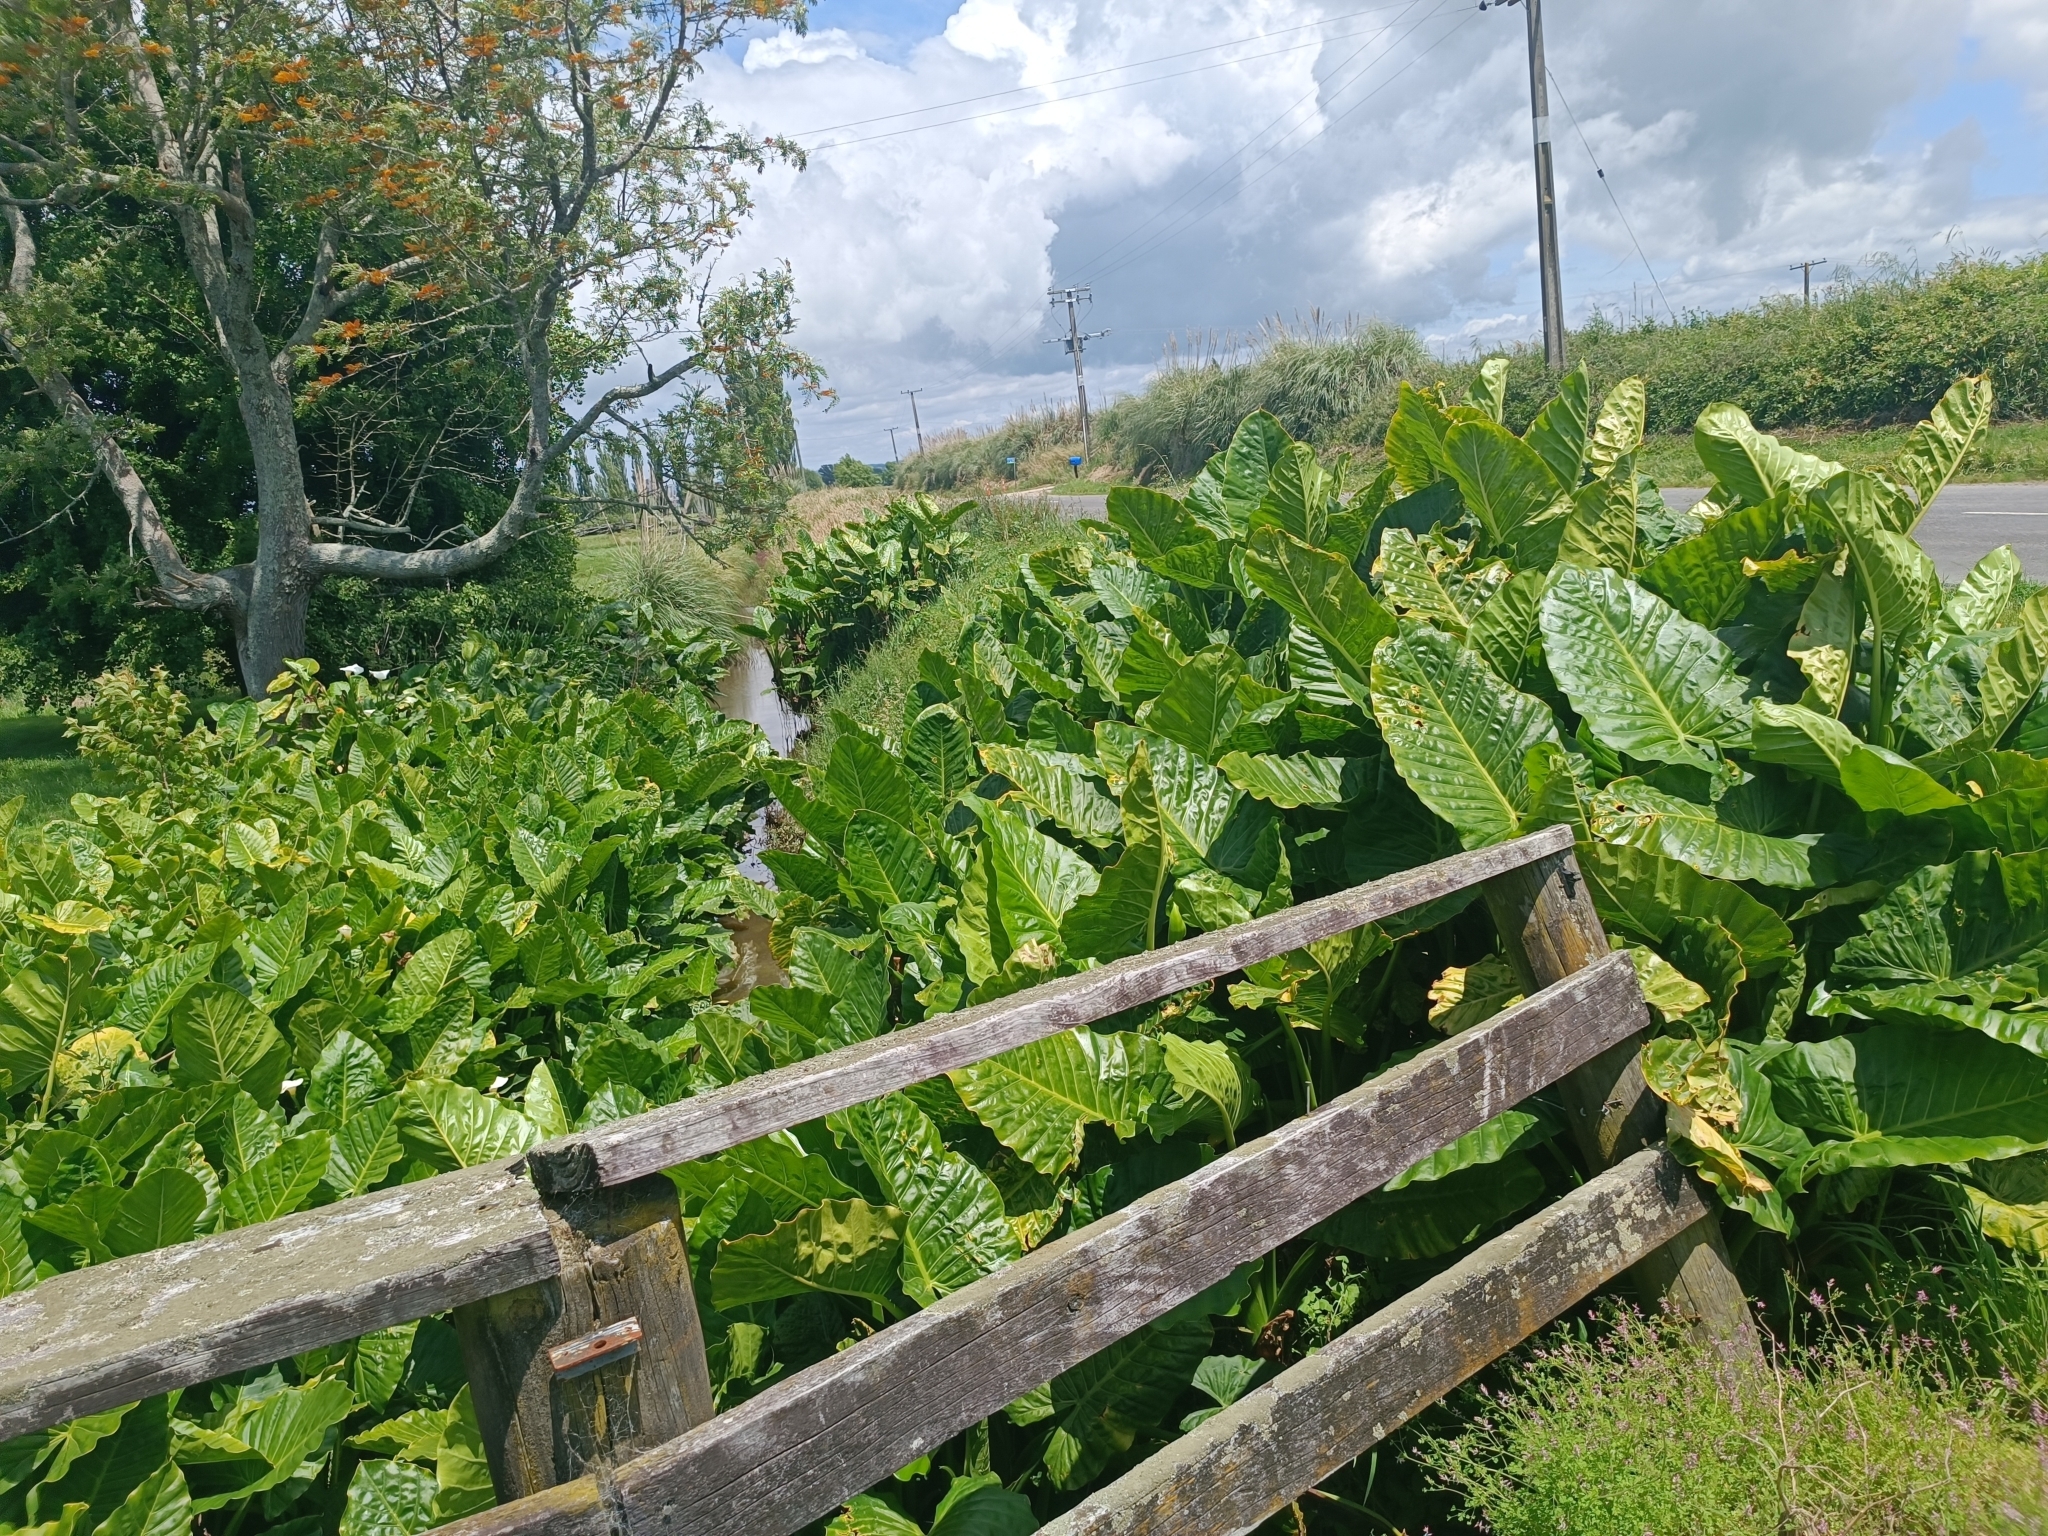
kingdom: Plantae
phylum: Tracheophyta
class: Liliopsida
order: Alismatales
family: Araceae
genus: Alocasia
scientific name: Alocasia brisbanensis
